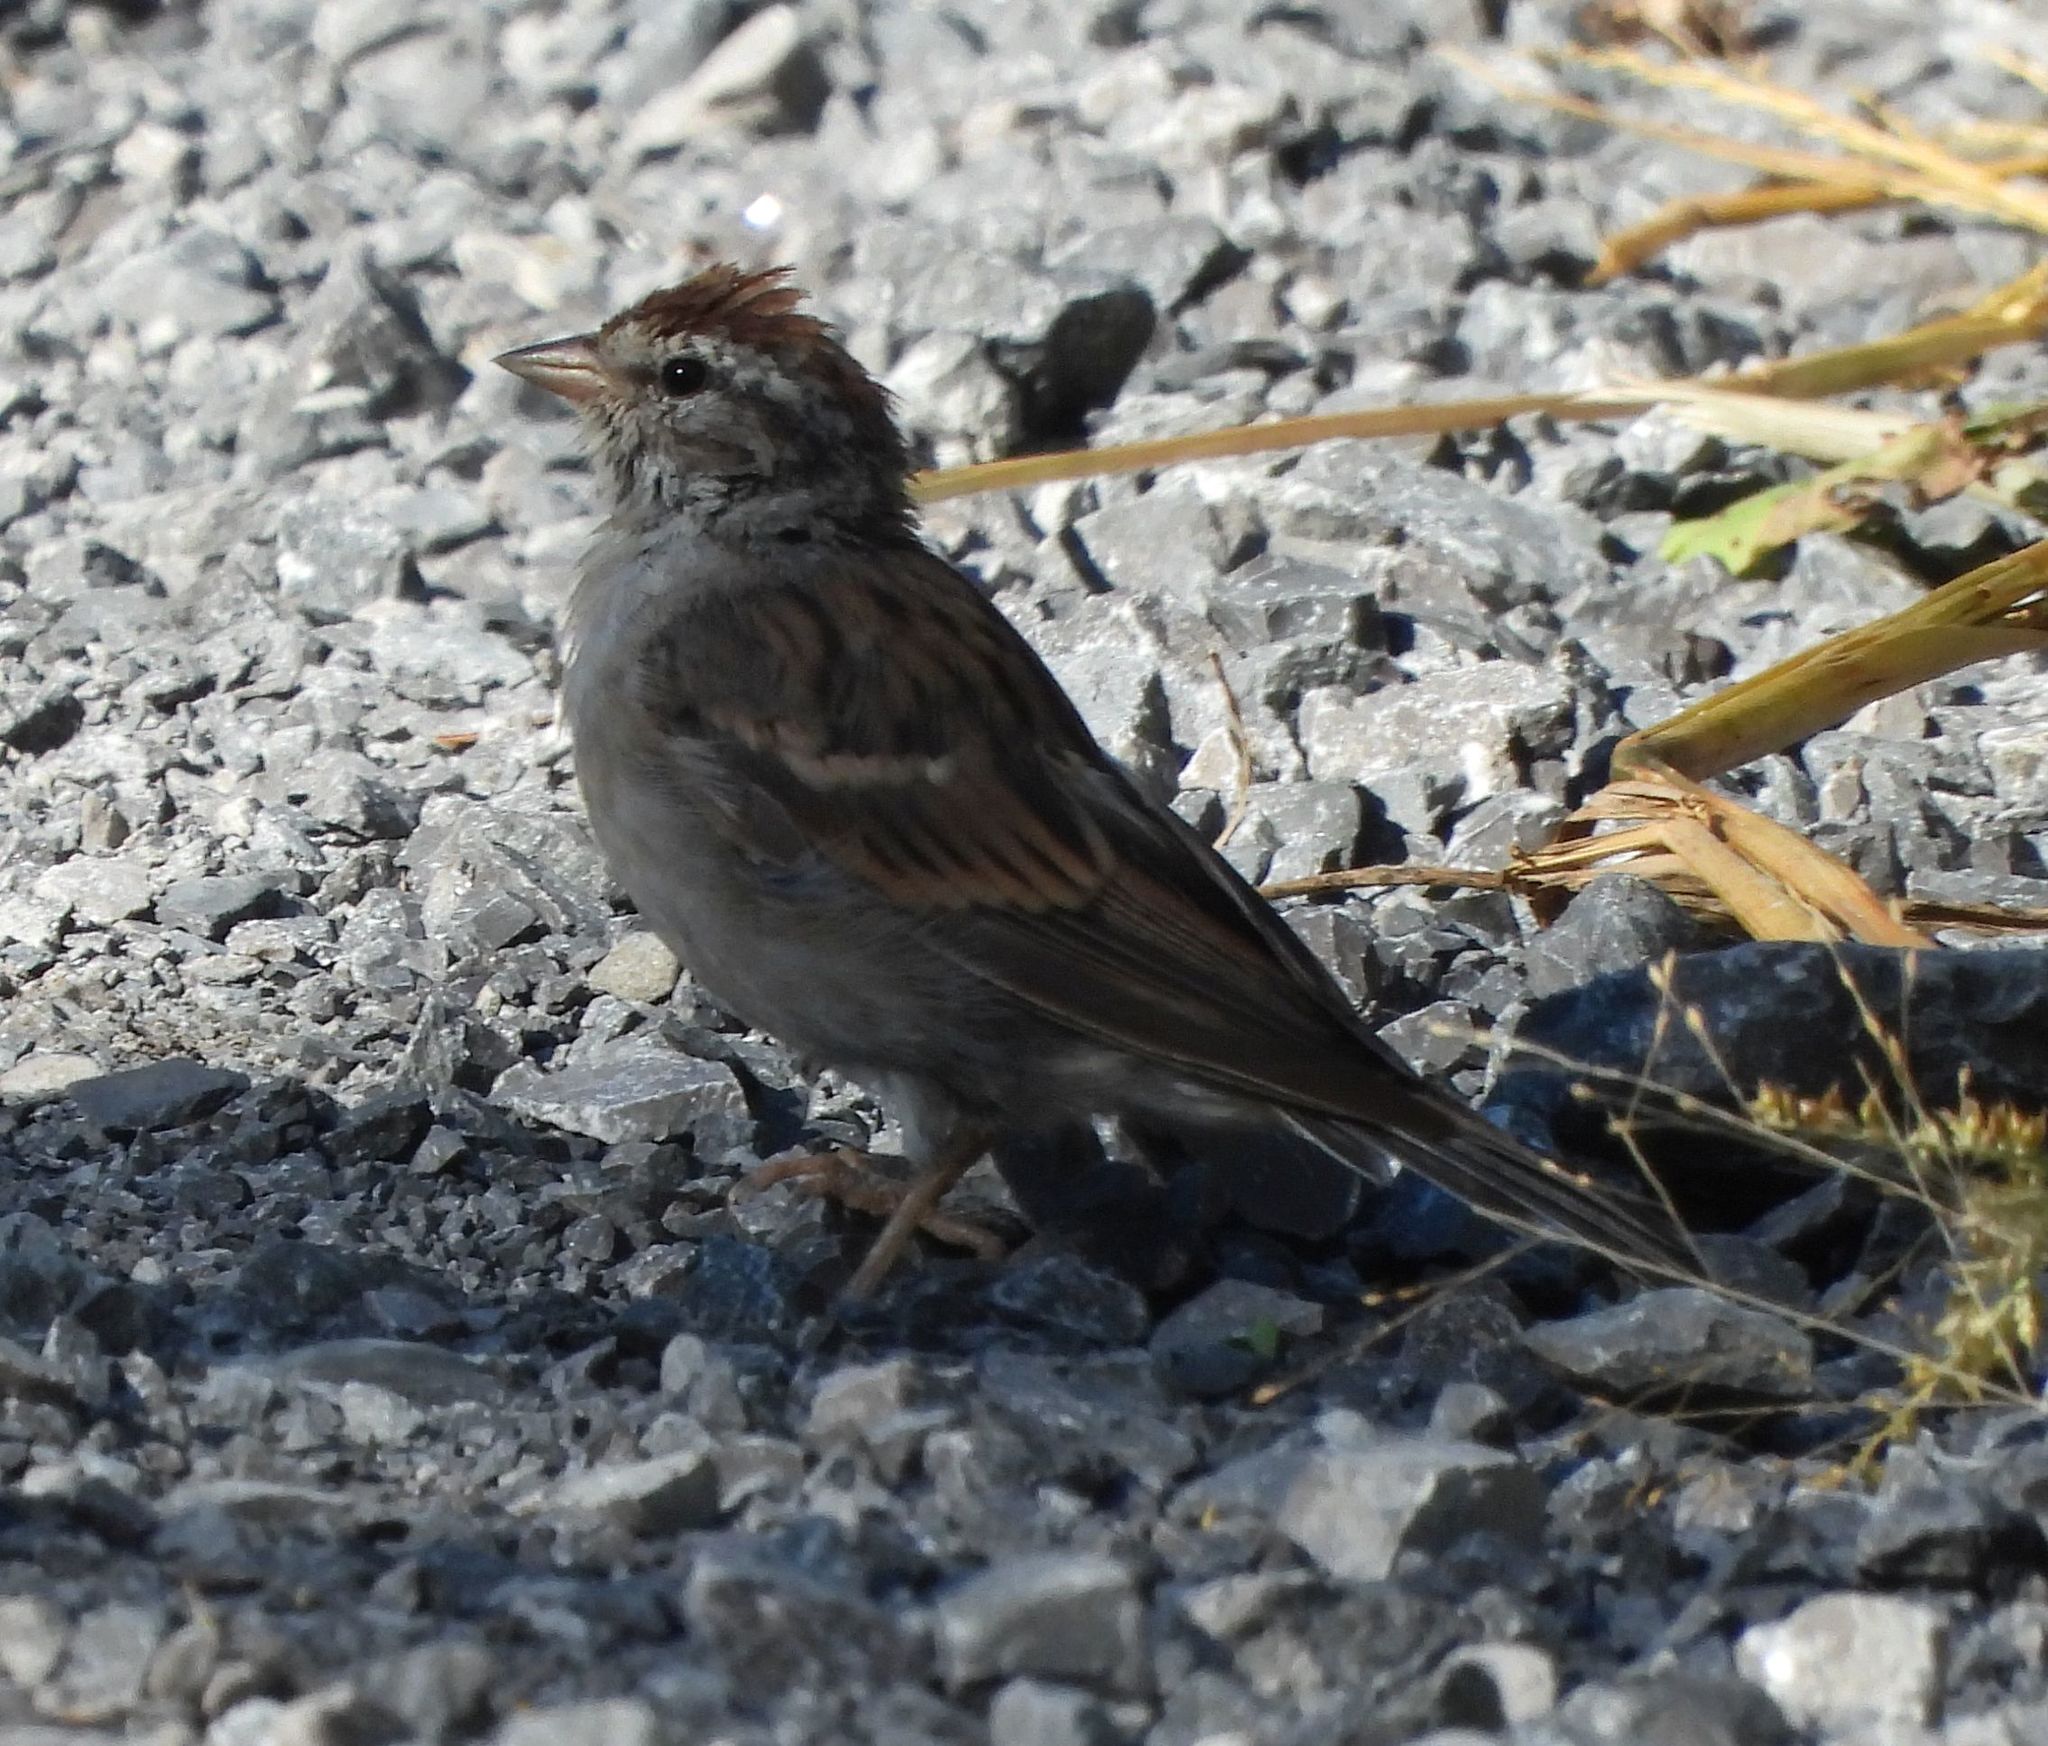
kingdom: Animalia
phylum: Chordata
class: Aves
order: Passeriformes
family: Passerellidae
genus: Spizella
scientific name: Spizella passerina
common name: Chipping sparrow
